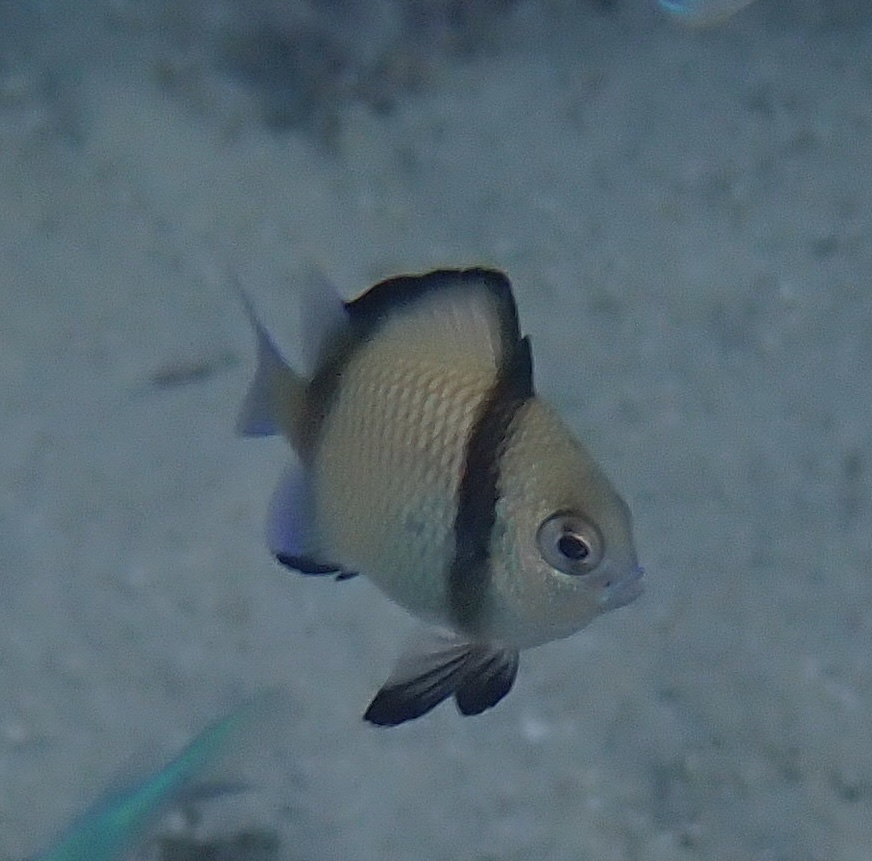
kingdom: Animalia
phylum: Chordata
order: Perciformes
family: Pomacentridae
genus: Dascyllus
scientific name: Dascyllus reticulatus
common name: Reticulated dascyllus
